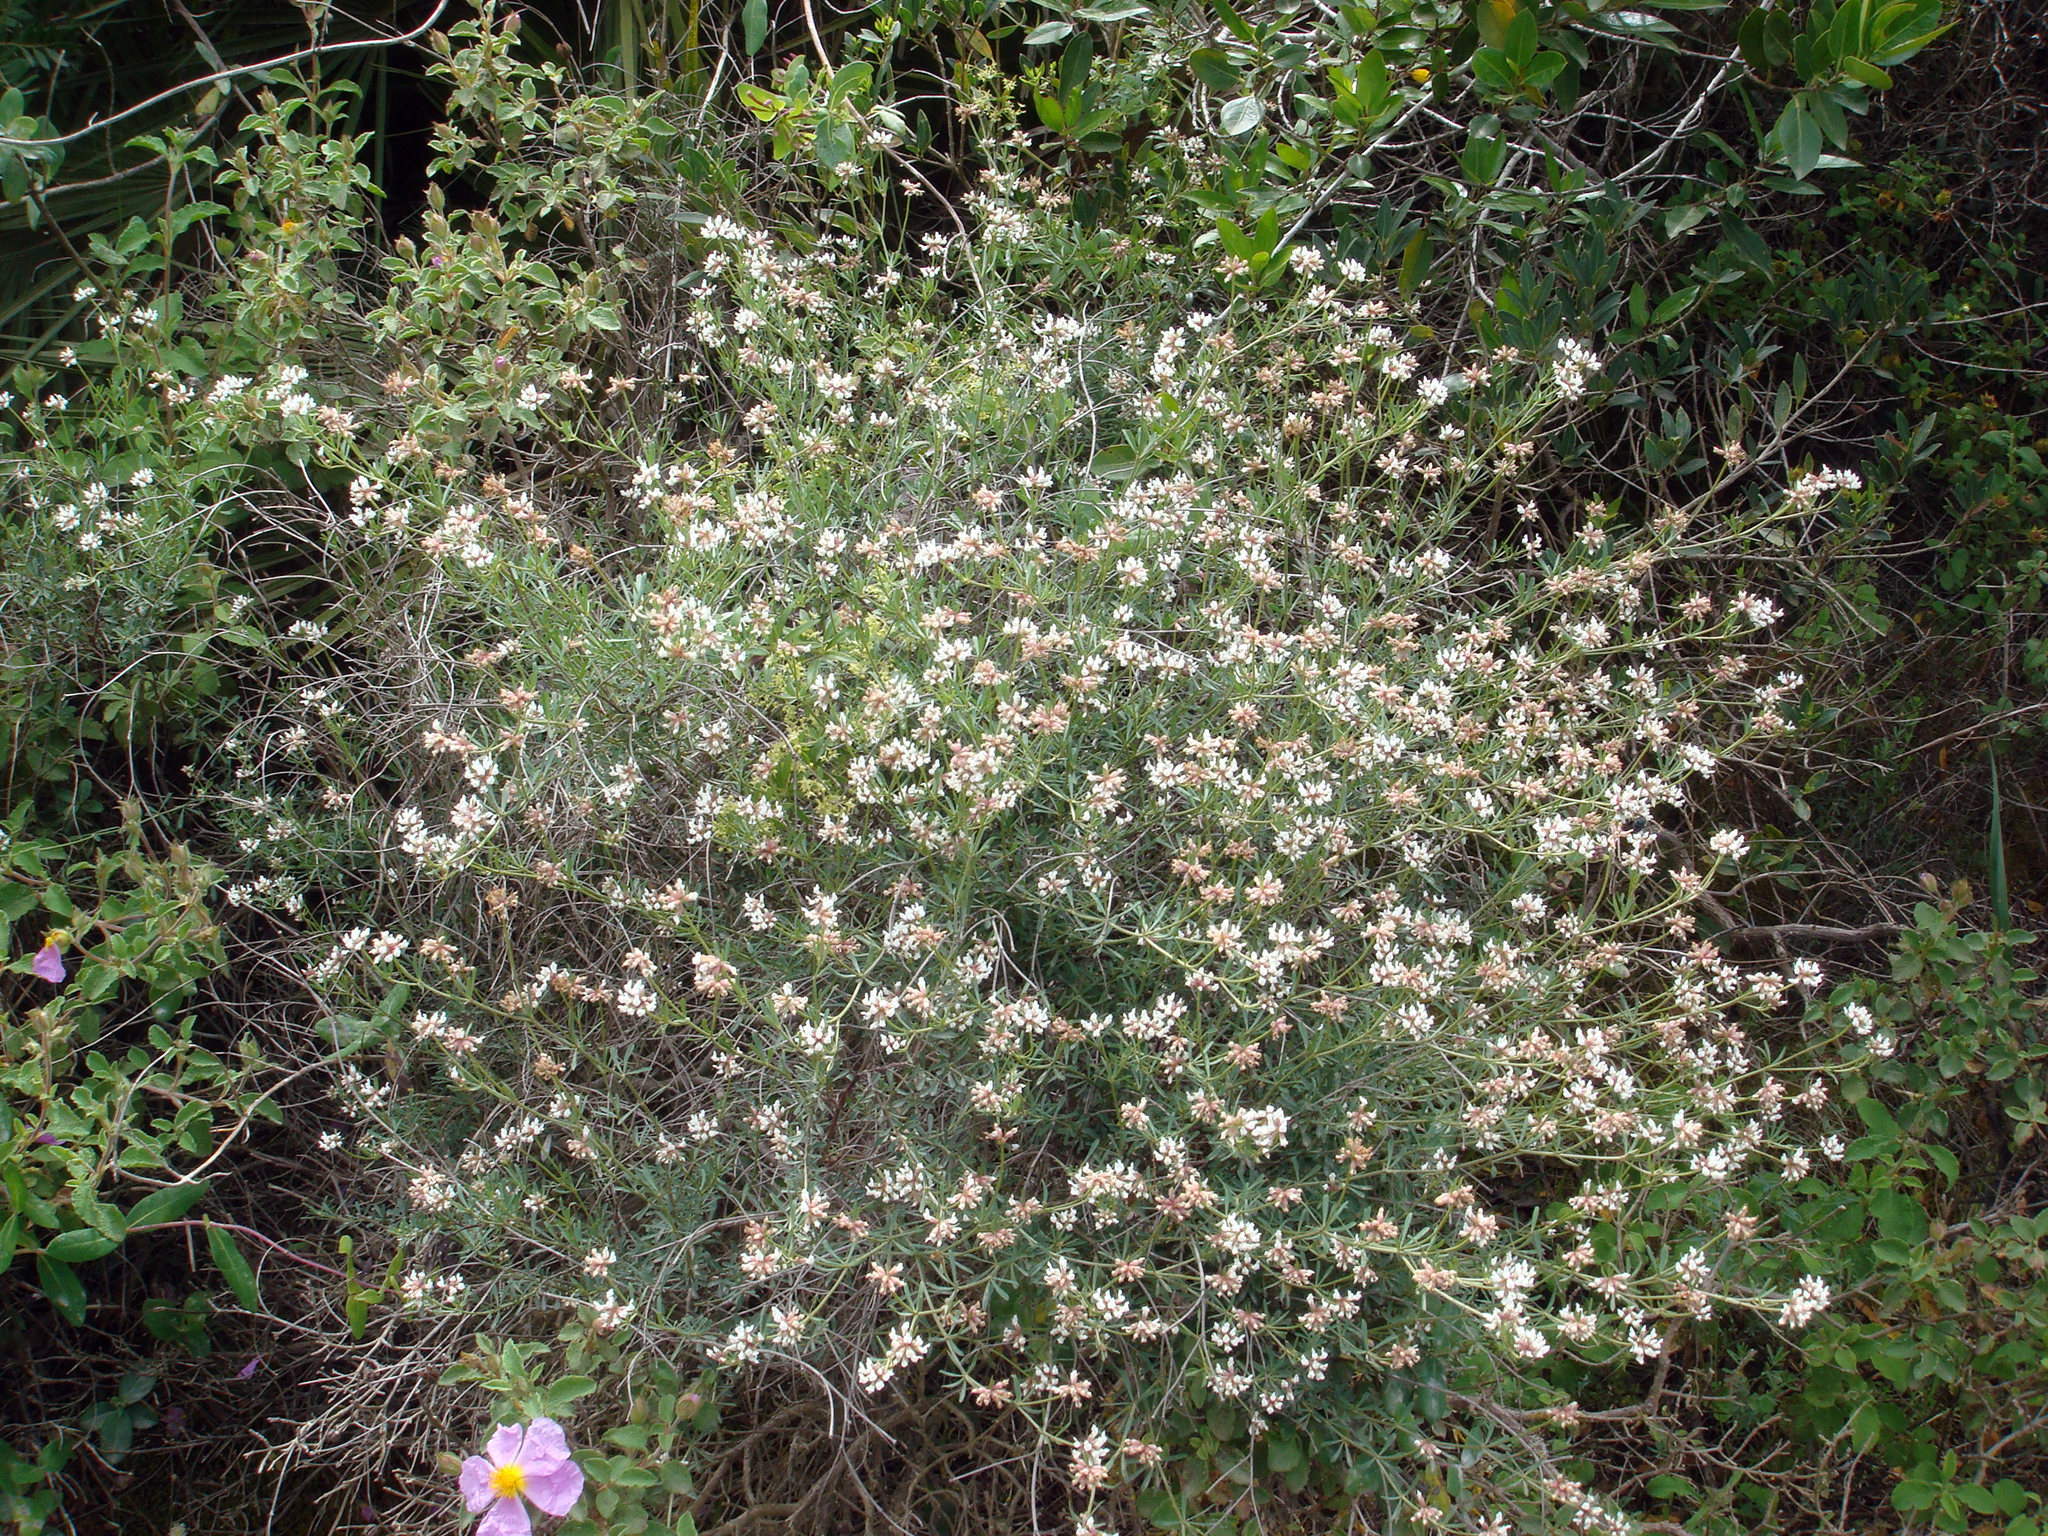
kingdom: Plantae
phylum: Tracheophyta
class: Magnoliopsida
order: Fabales
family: Fabaceae
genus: Lotus
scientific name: Lotus dorycnium
